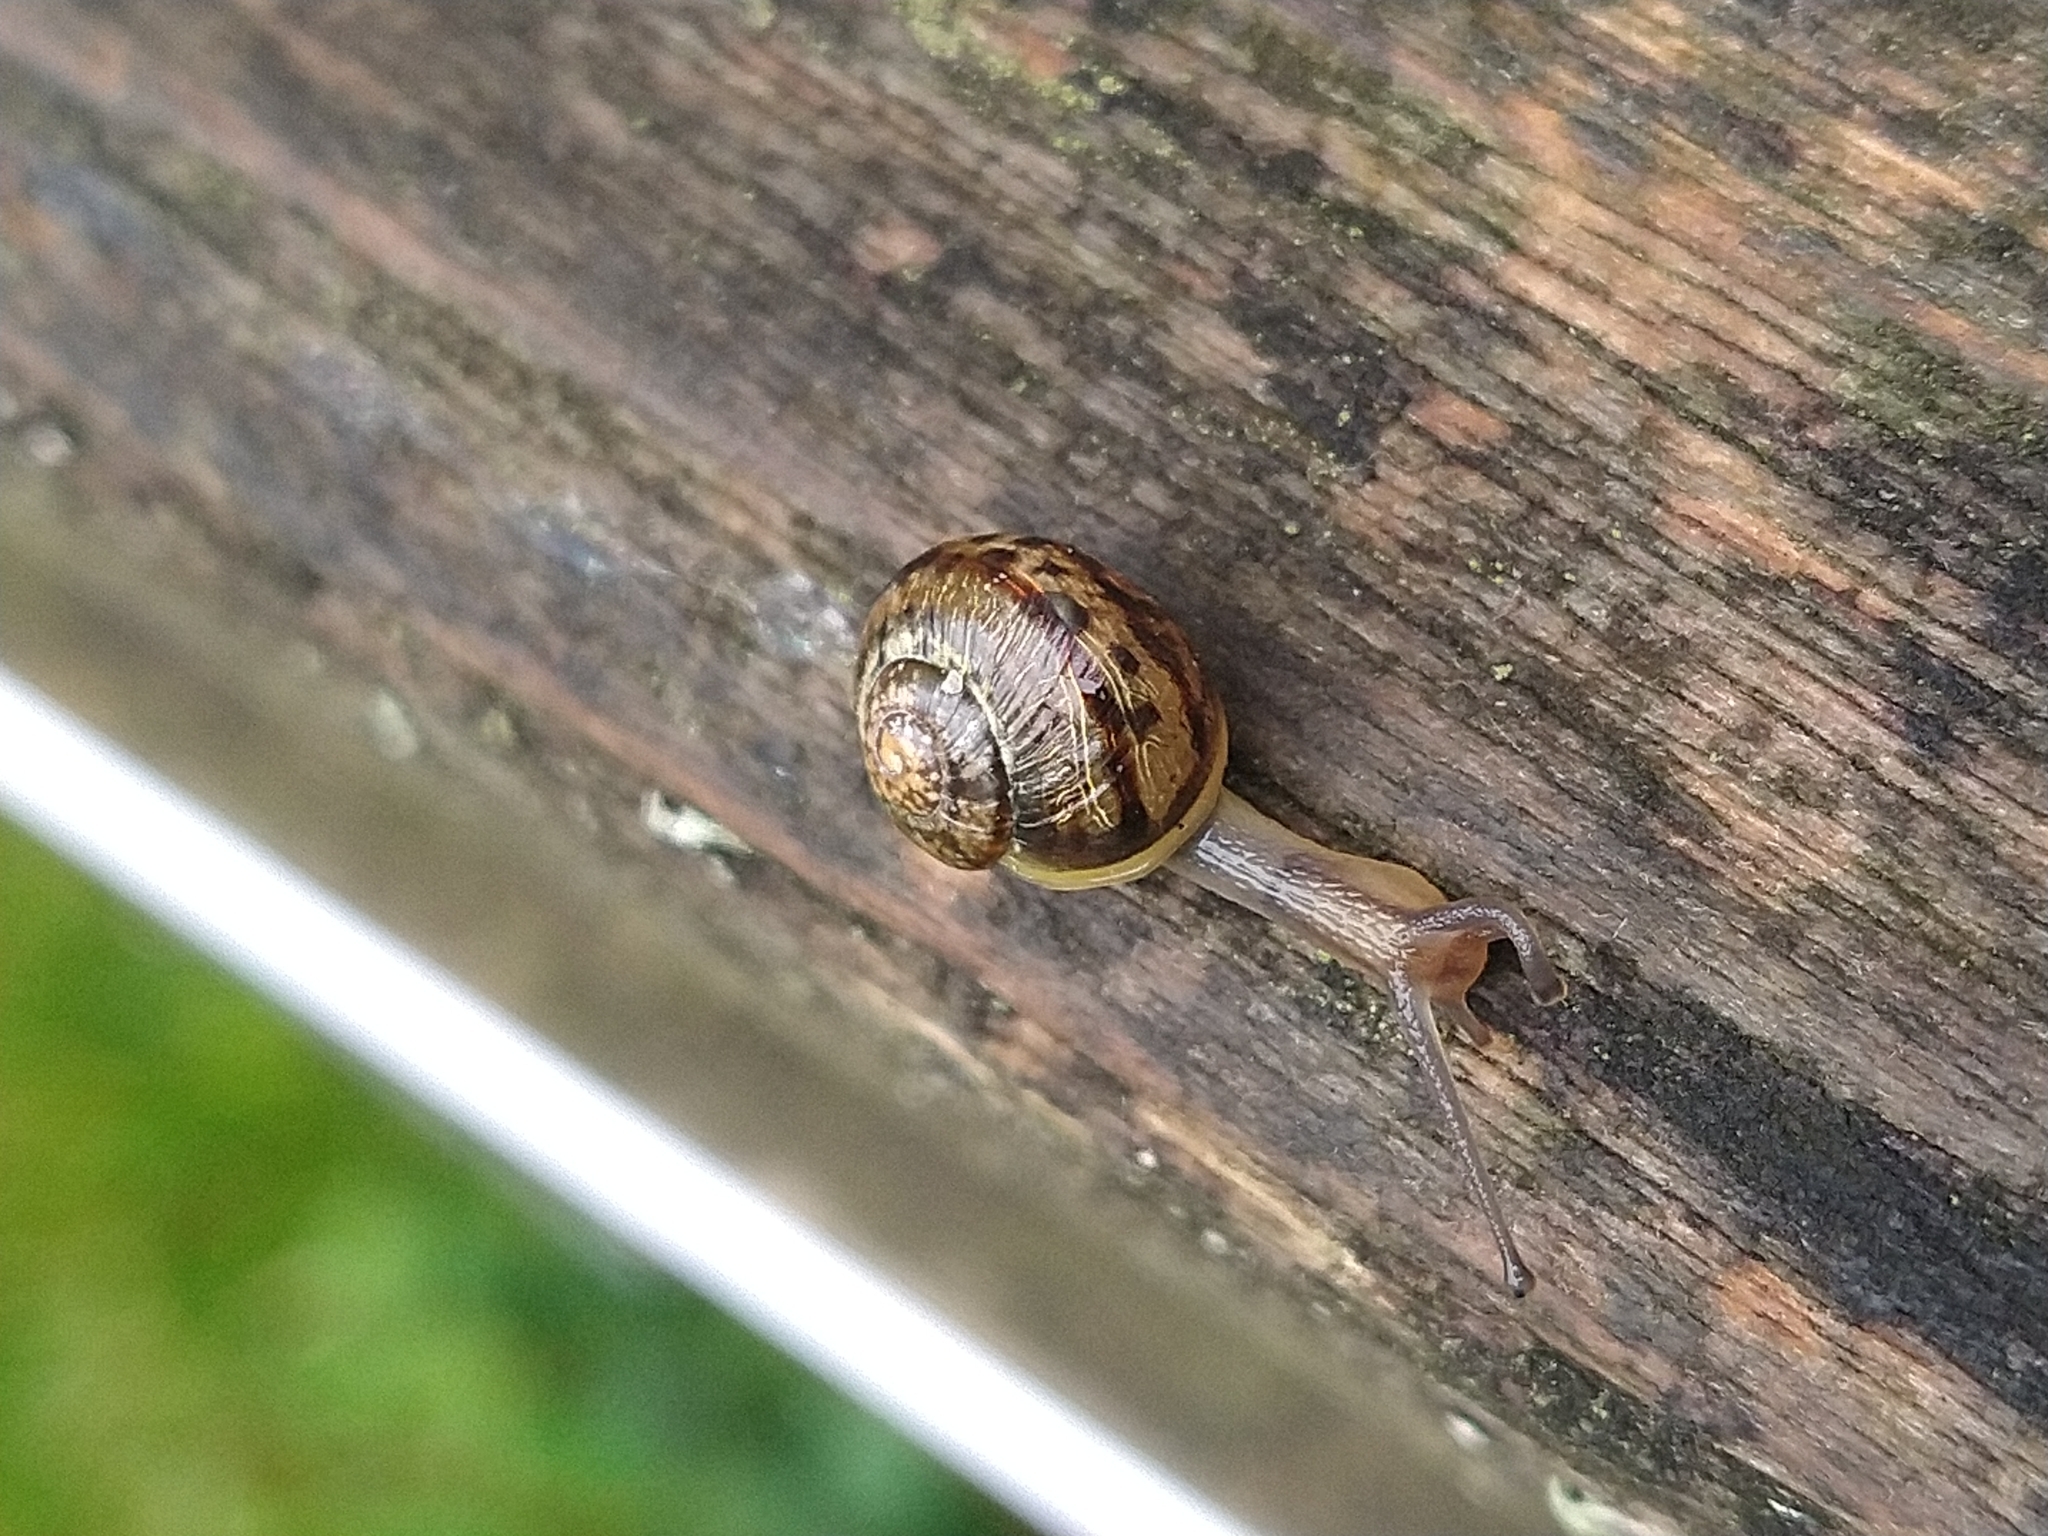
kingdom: Animalia
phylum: Mollusca
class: Gastropoda
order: Stylommatophora
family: Helicidae
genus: Cornu
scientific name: Cornu aspersum
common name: Brown garden snail
